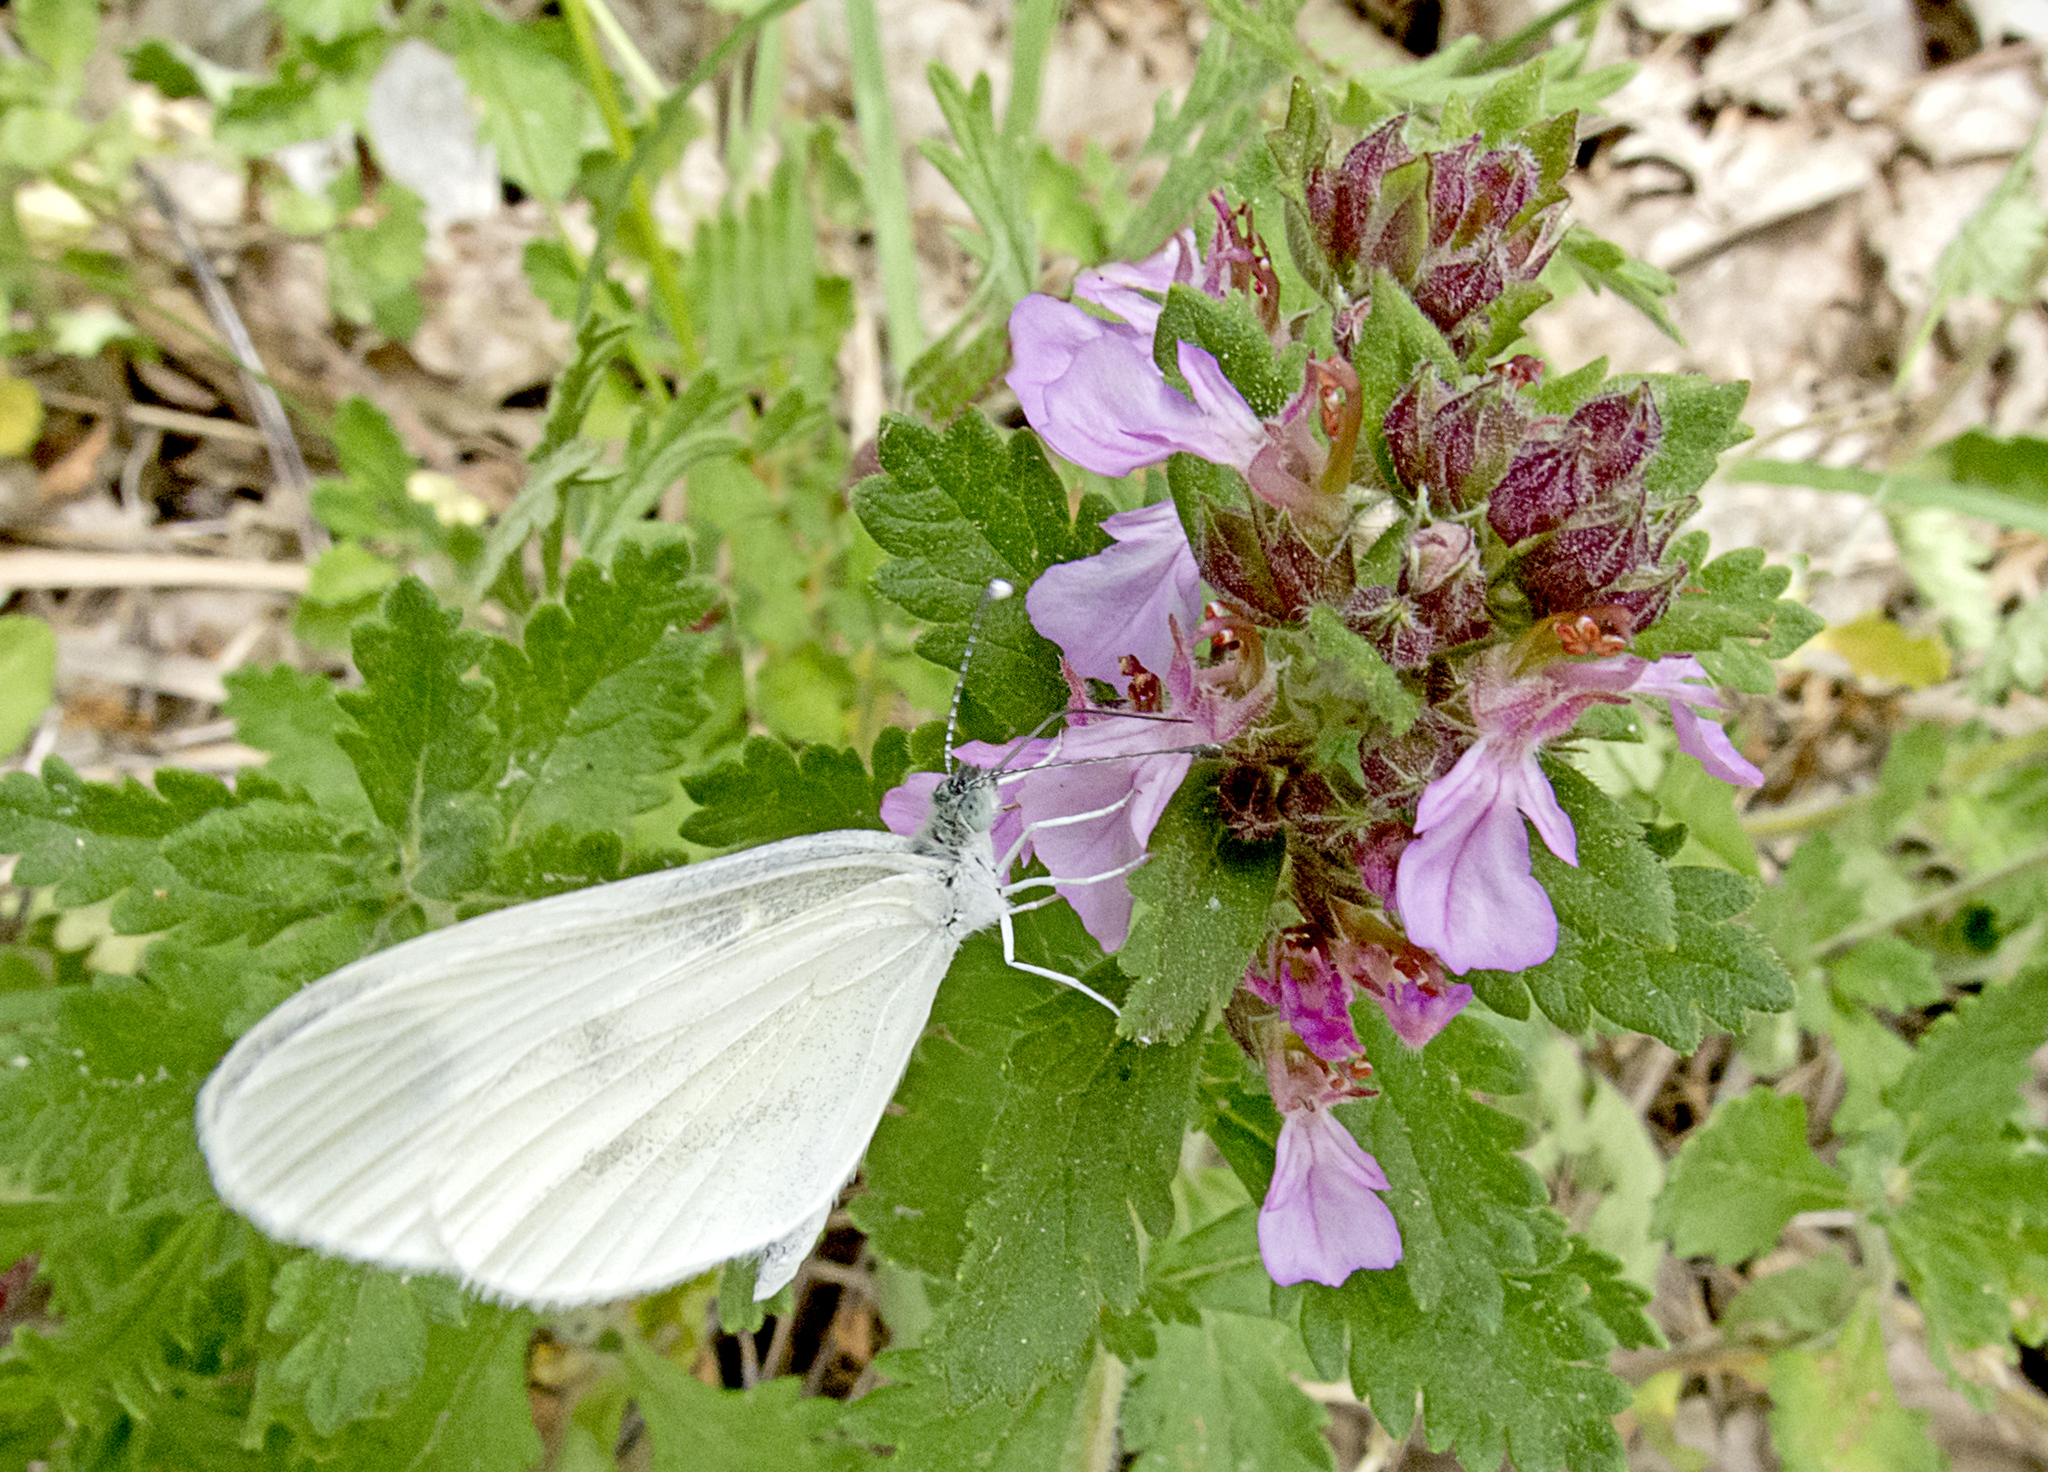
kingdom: Animalia
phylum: Arthropoda
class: Insecta
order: Lepidoptera
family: Pieridae
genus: Leptidea
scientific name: Leptidea
